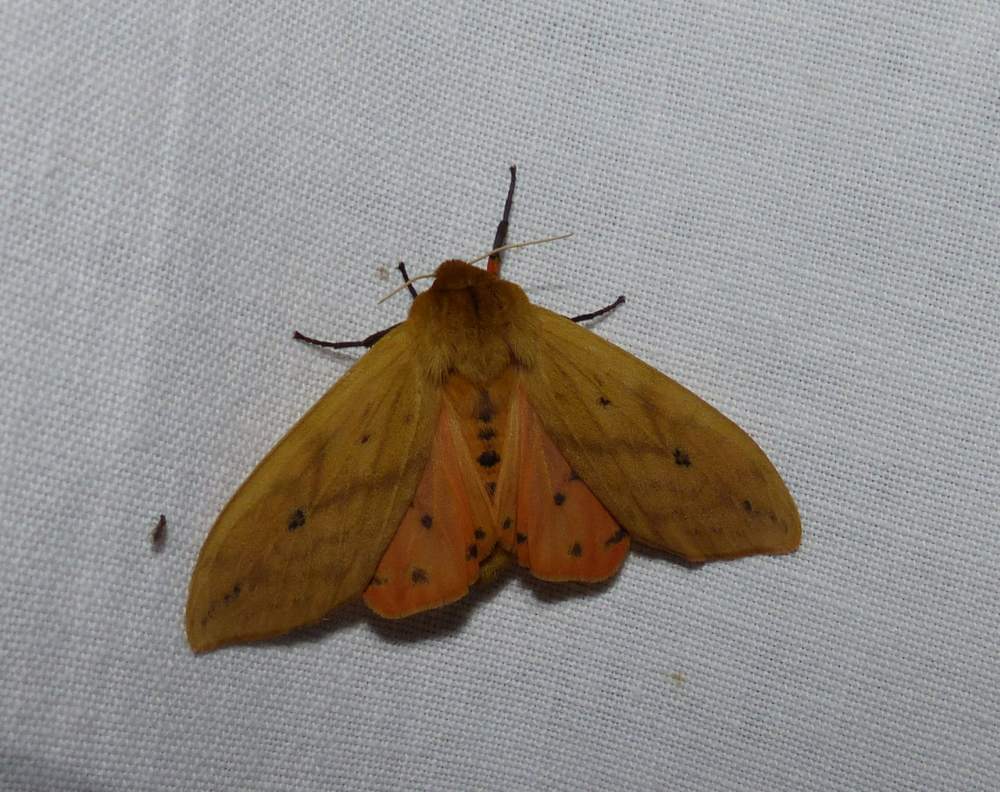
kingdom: Animalia
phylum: Arthropoda
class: Insecta
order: Lepidoptera
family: Erebidae
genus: Pyrrharctia
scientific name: Pyrrharctia isabella
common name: Isabella tiger moth
